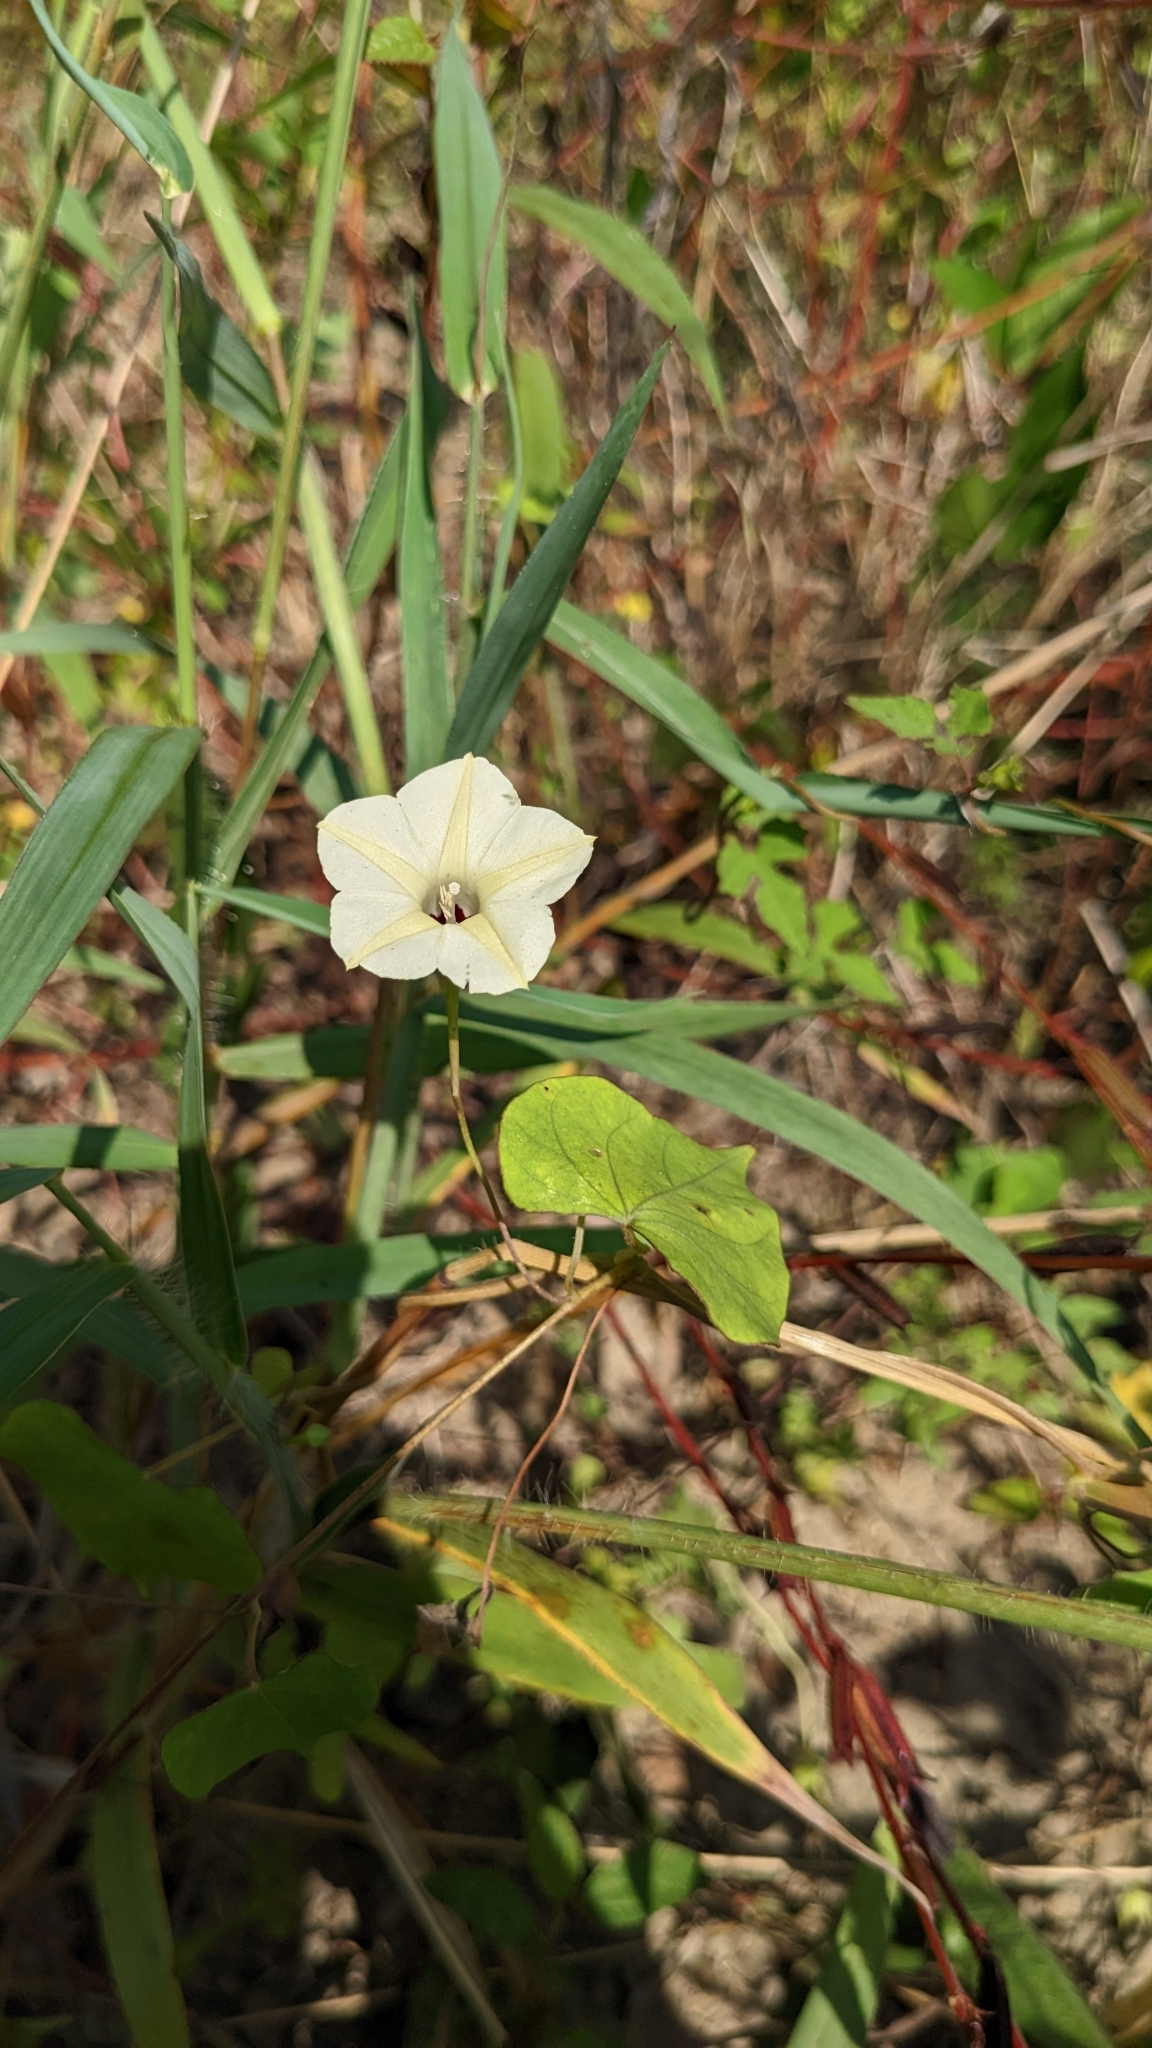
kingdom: Plantae
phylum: Tracheophyta
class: Magnoliopsida
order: Solanales
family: Convolvulaceae
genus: Ipomoea
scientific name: Ipomoea obscura
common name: Obscure morning-glory
